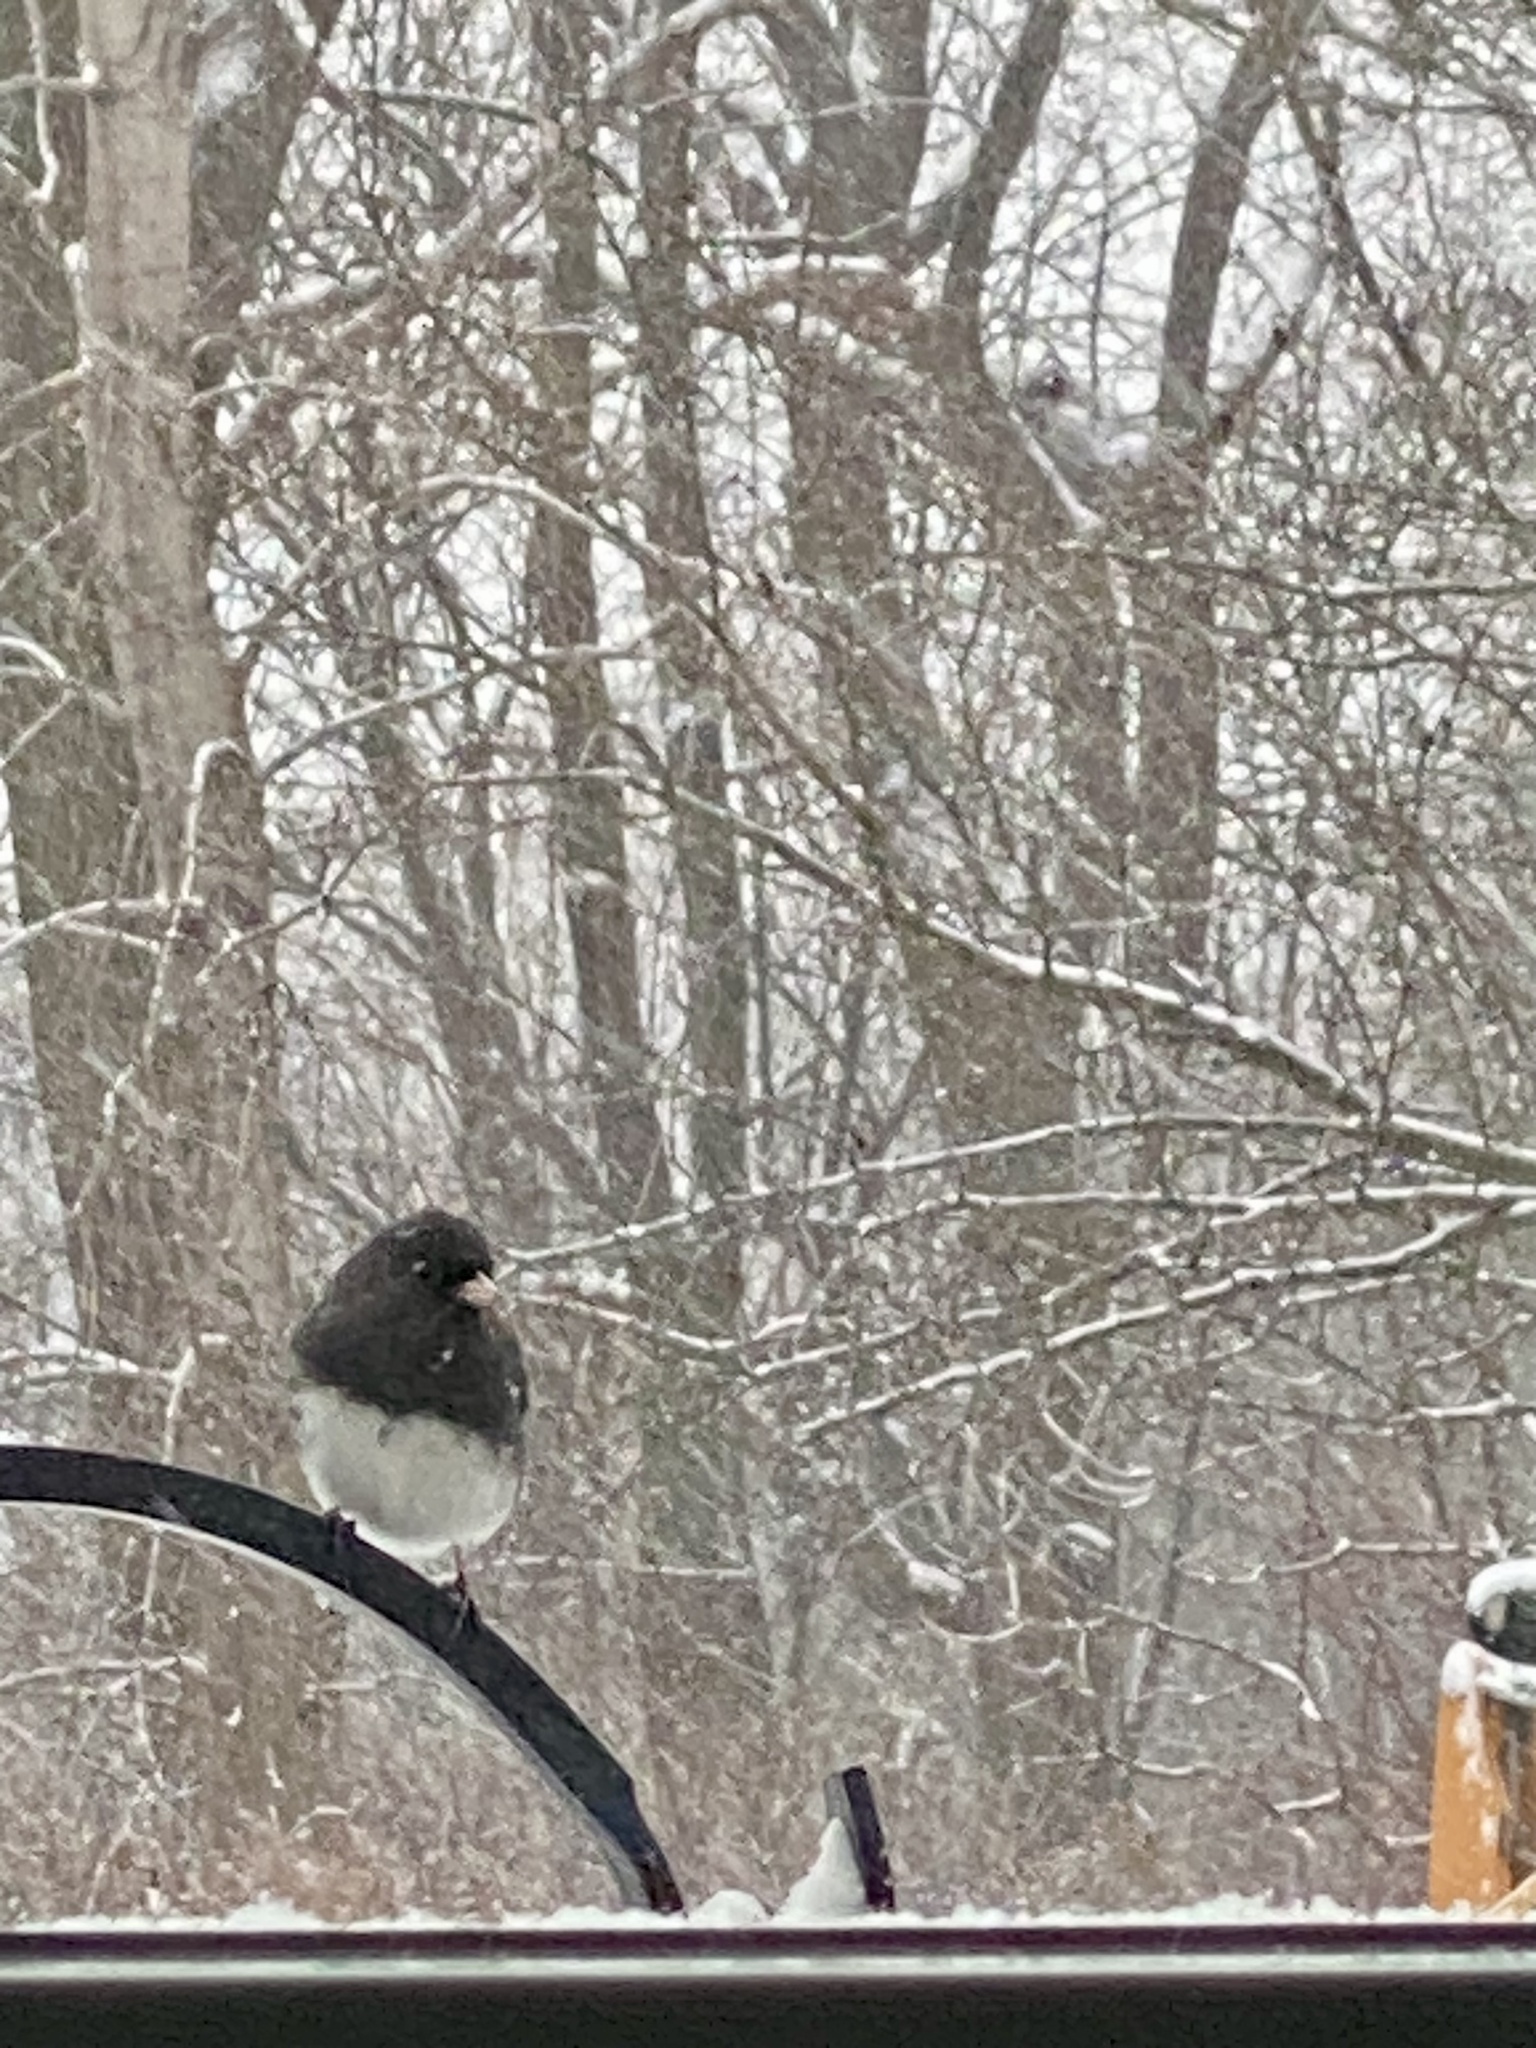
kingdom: Animalia
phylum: Chordata
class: Aves
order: Passeriformes
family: Passerellidae
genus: Junco
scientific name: Junco hyemalis
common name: Dark-eyed junco
